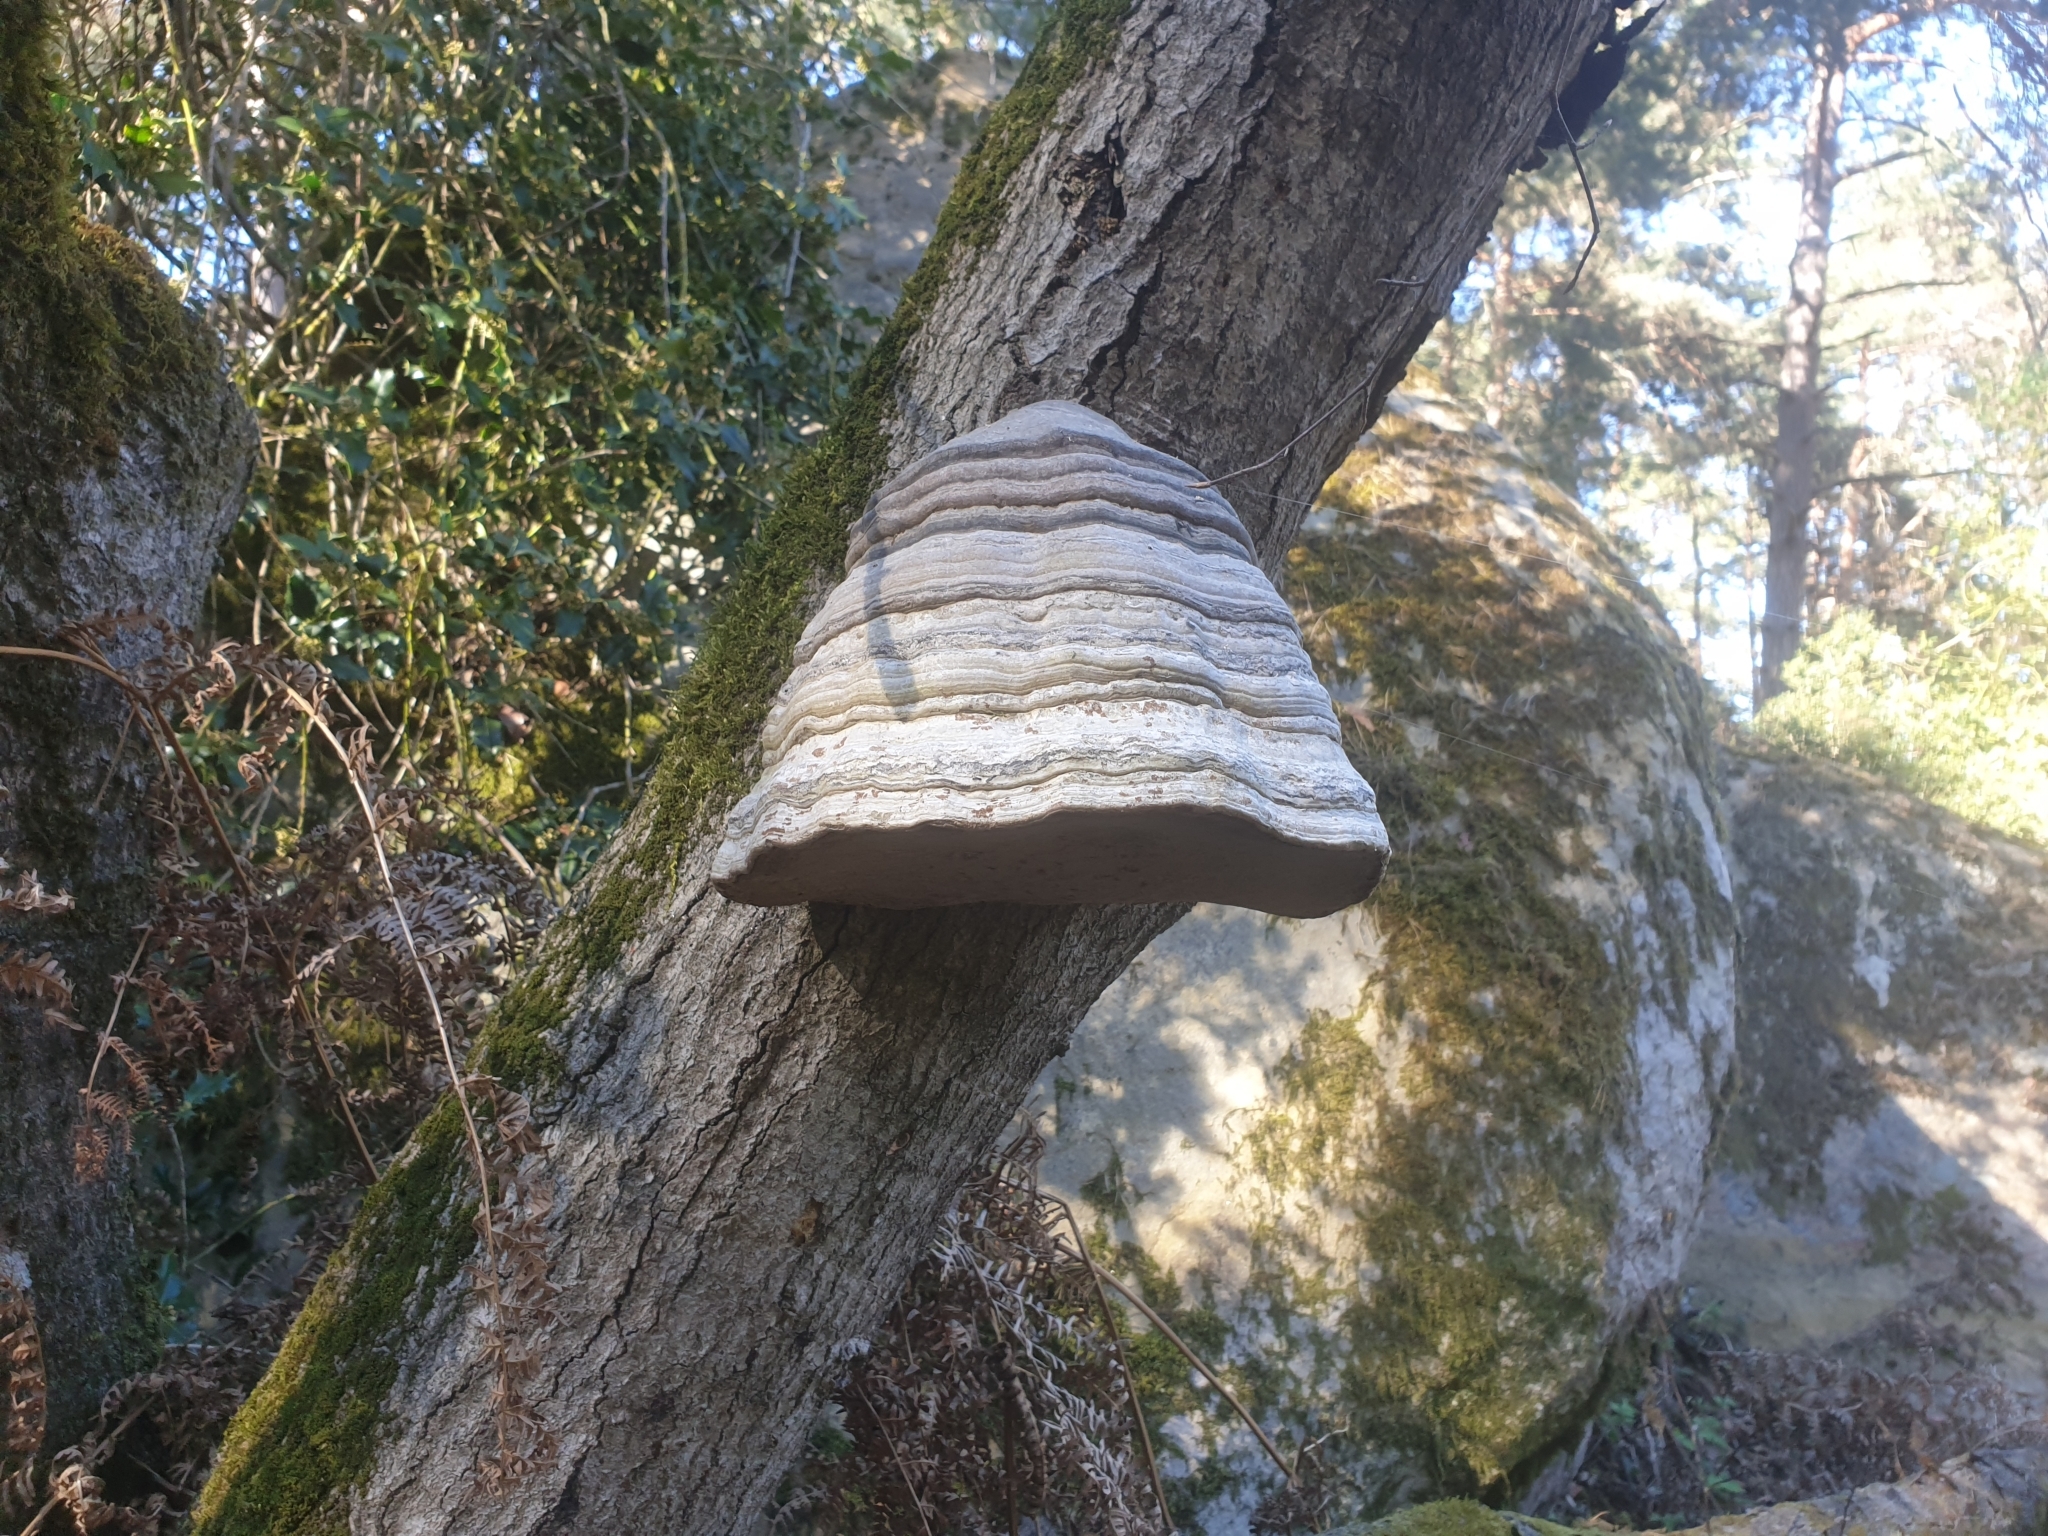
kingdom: Fungi
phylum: Basidiomycota
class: Agaricomycetes
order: Polyporales
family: Polyporaceae
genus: Fomes
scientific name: Fomes fomentarius
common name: Hoof fungus
